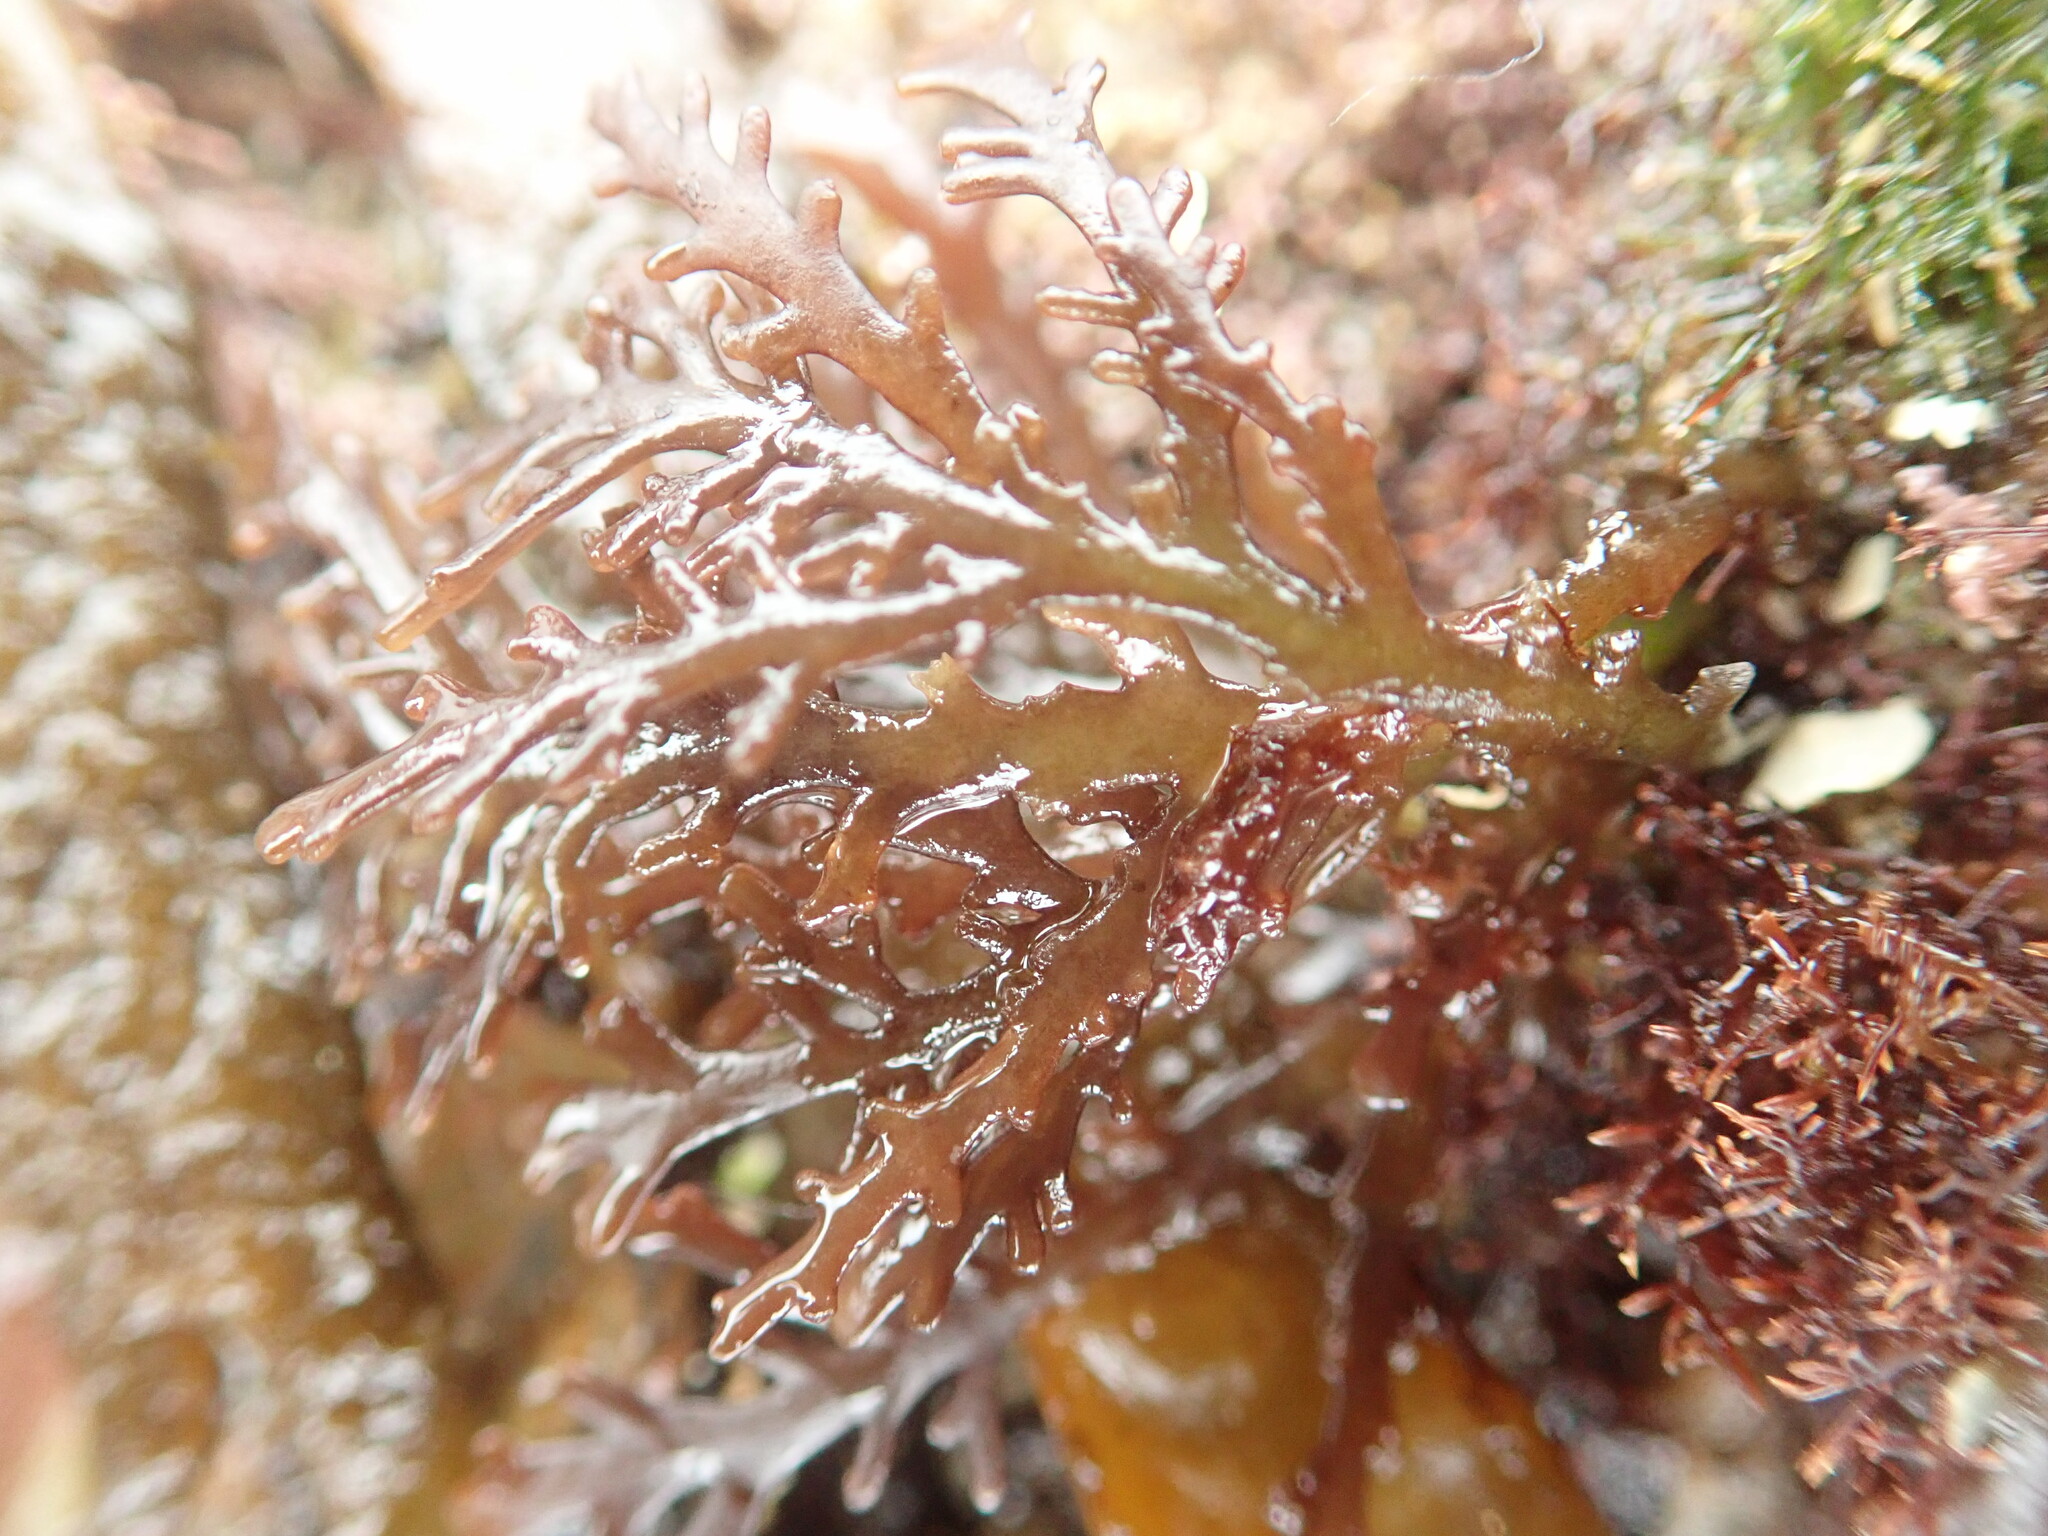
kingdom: Plantae
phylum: Rhodophyta
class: Florideophyceae
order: Ceramiales
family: Rhodomelaceae
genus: Laurencia
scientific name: Laurencia Osmundea pinnatifida
